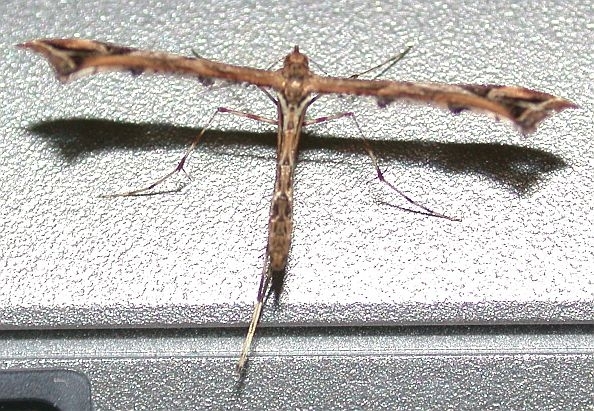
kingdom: Animalia
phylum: Arthropoda
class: Insecta
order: Lepidoptera
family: Pterophoridae
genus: Amblyptilia
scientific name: Amblyptilia acanthadactyla
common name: Beautiful plume
